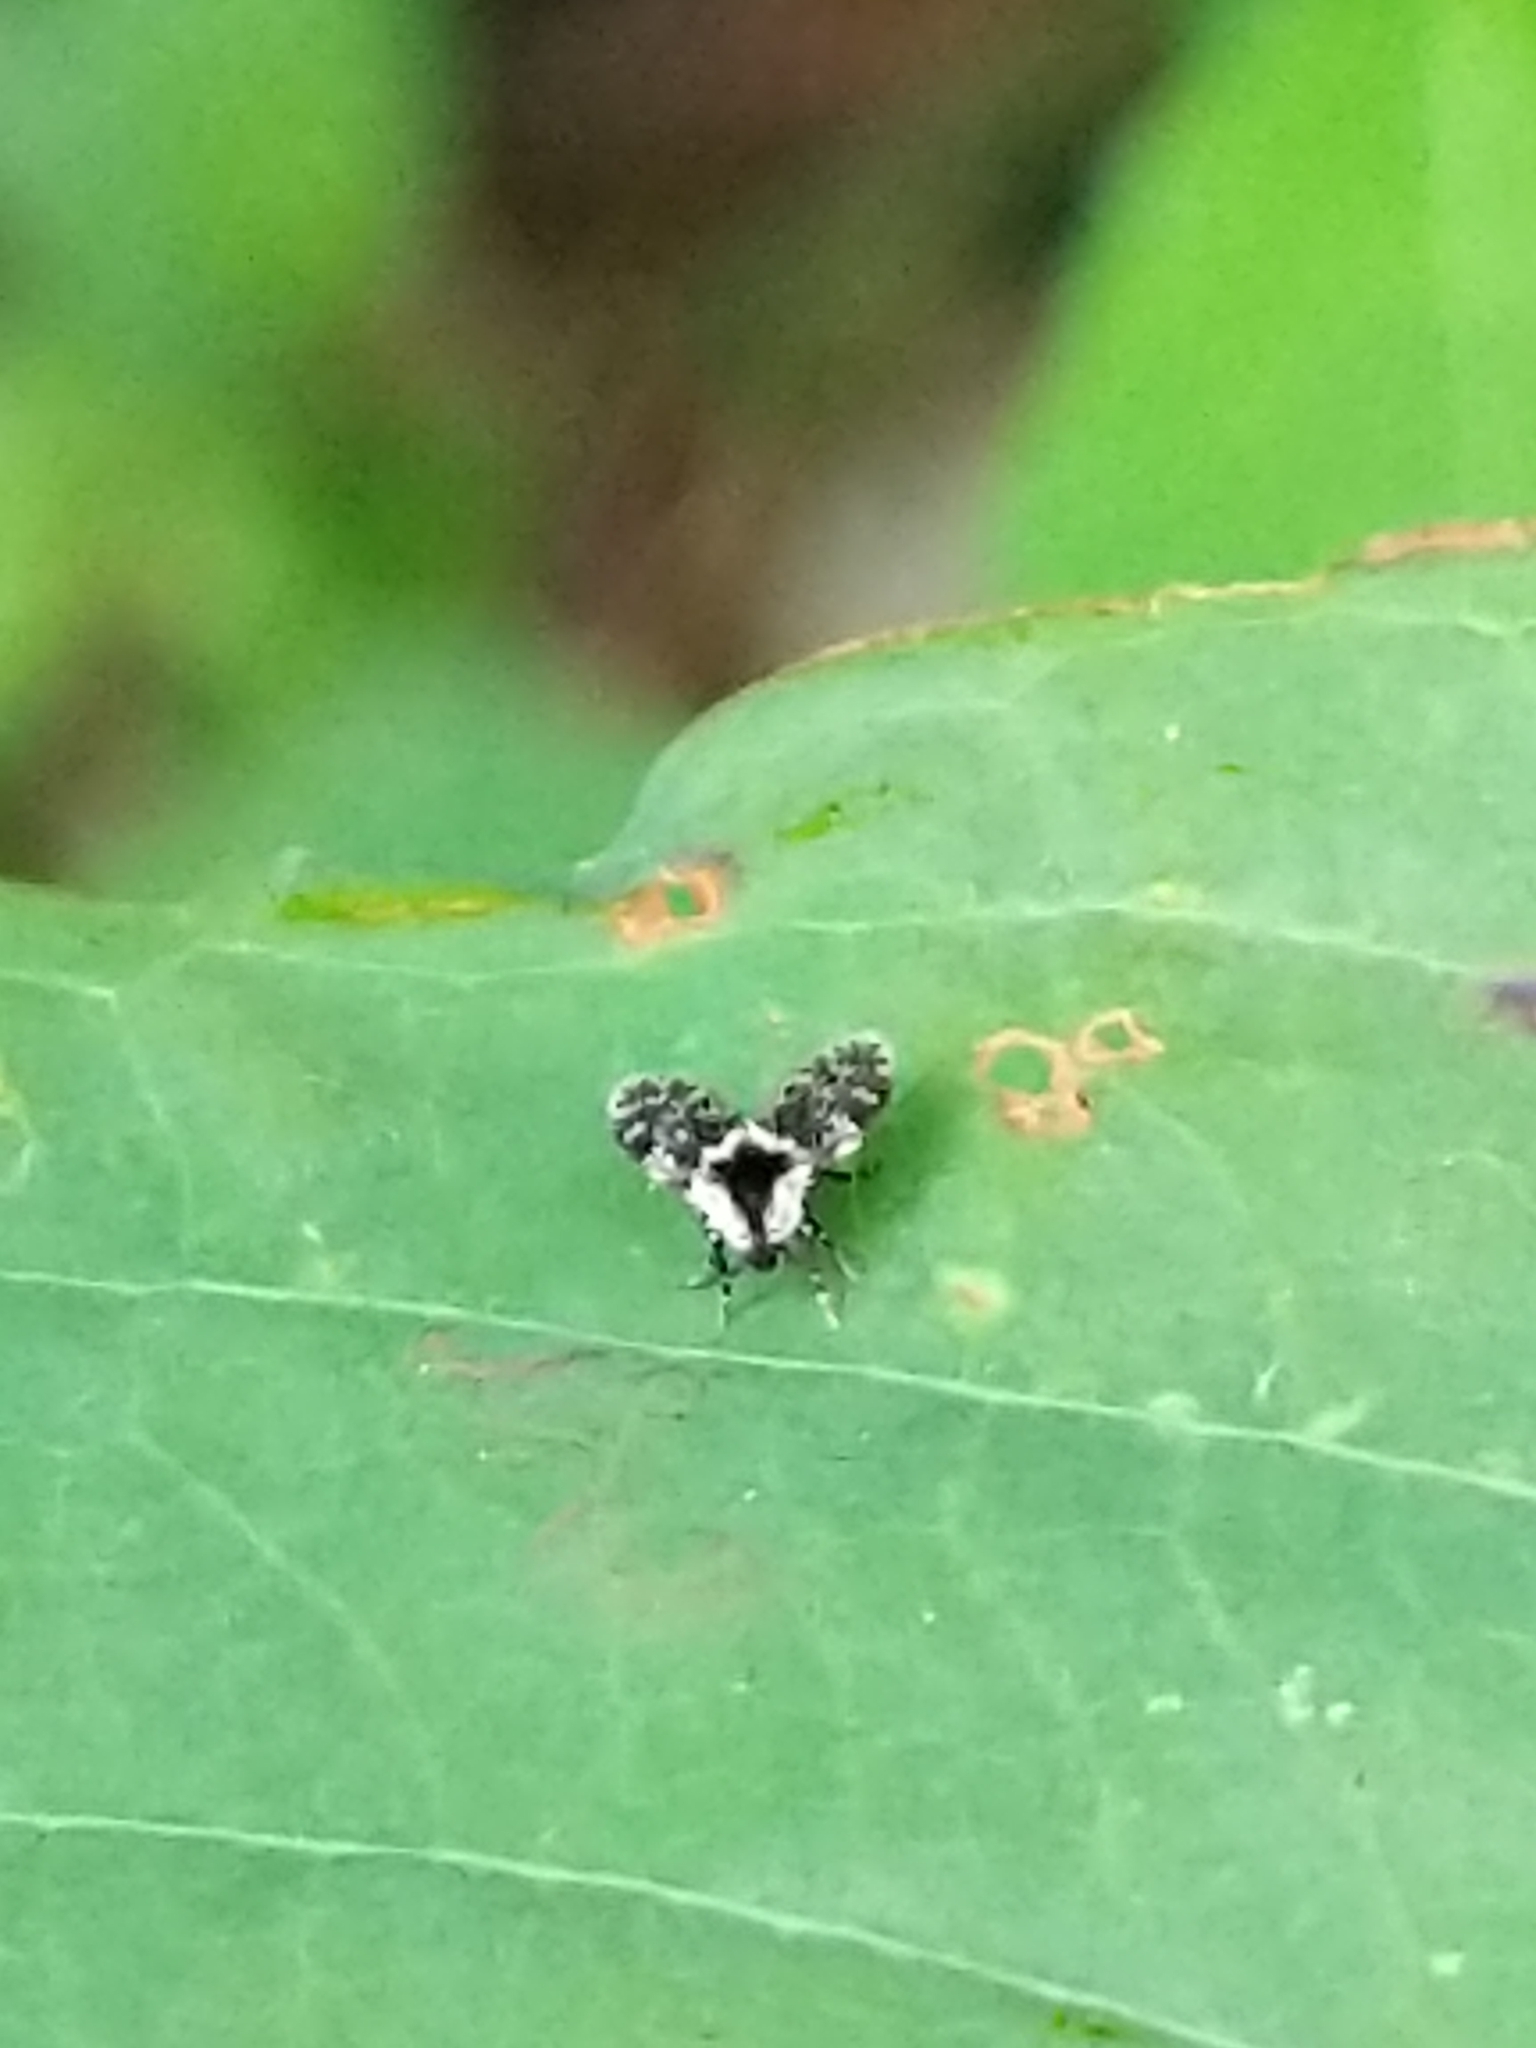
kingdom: Animalia
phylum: Arthropoda
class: Insecta
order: Diptera
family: Psychodidae
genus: Lepiseodina
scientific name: Lepiseodina
